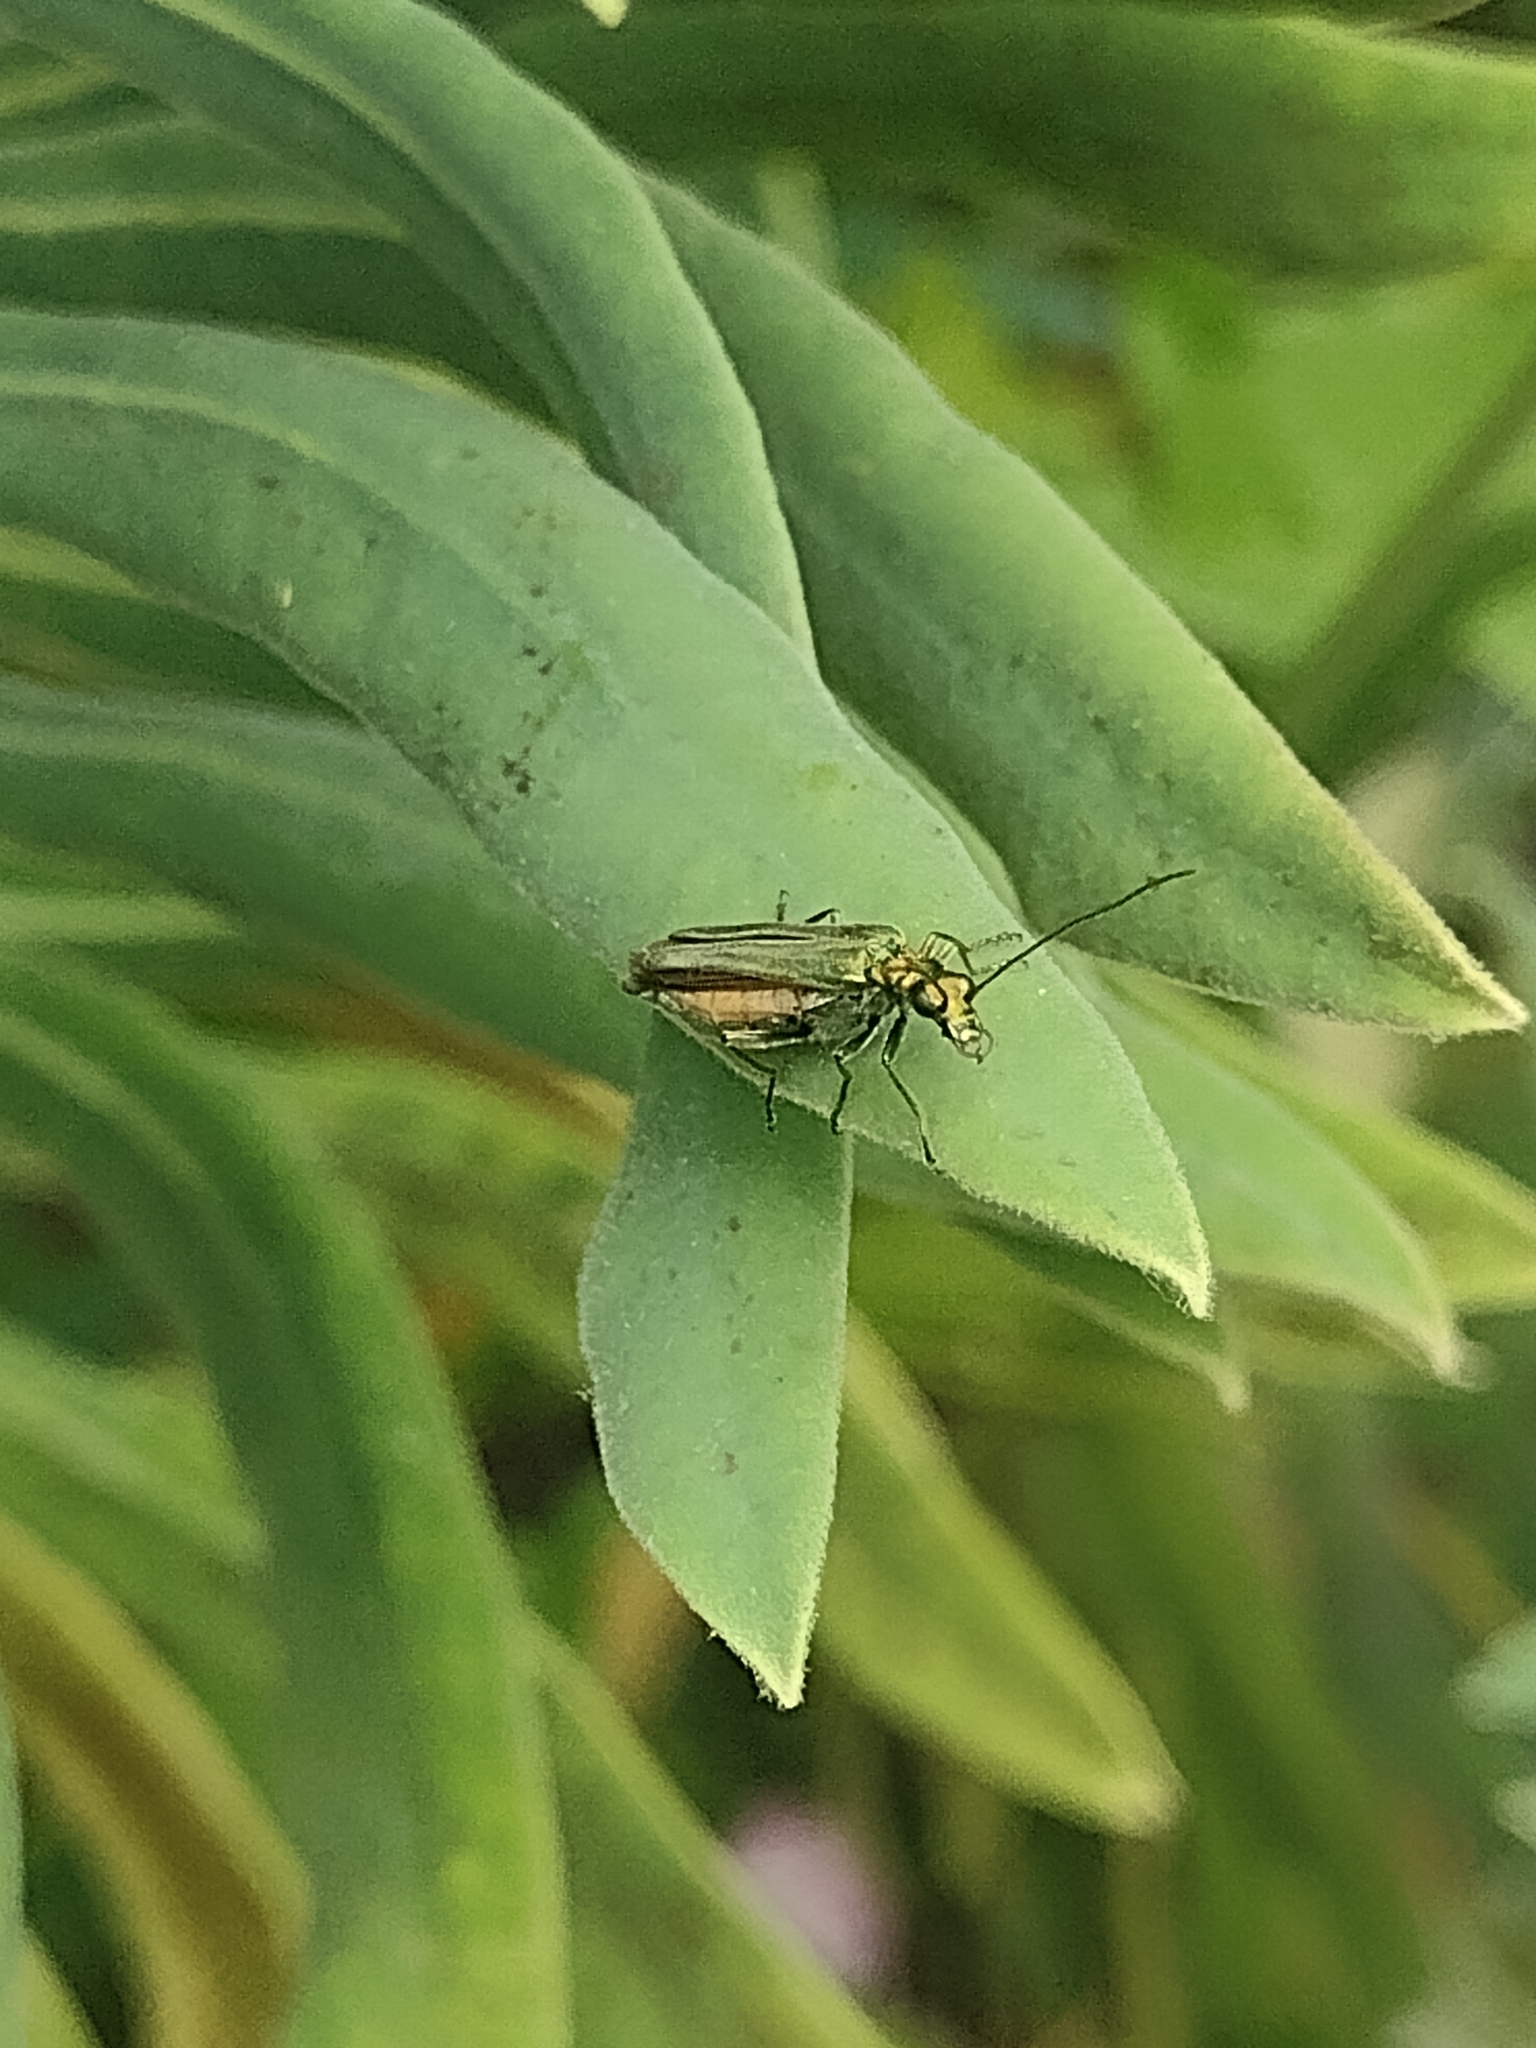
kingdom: Animalia
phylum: Arthropoda
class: Insecta
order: Coleoptera
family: Oedemeridae
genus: Oedemera
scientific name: Oedemera nobilis
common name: Swollen-thighed beetle
